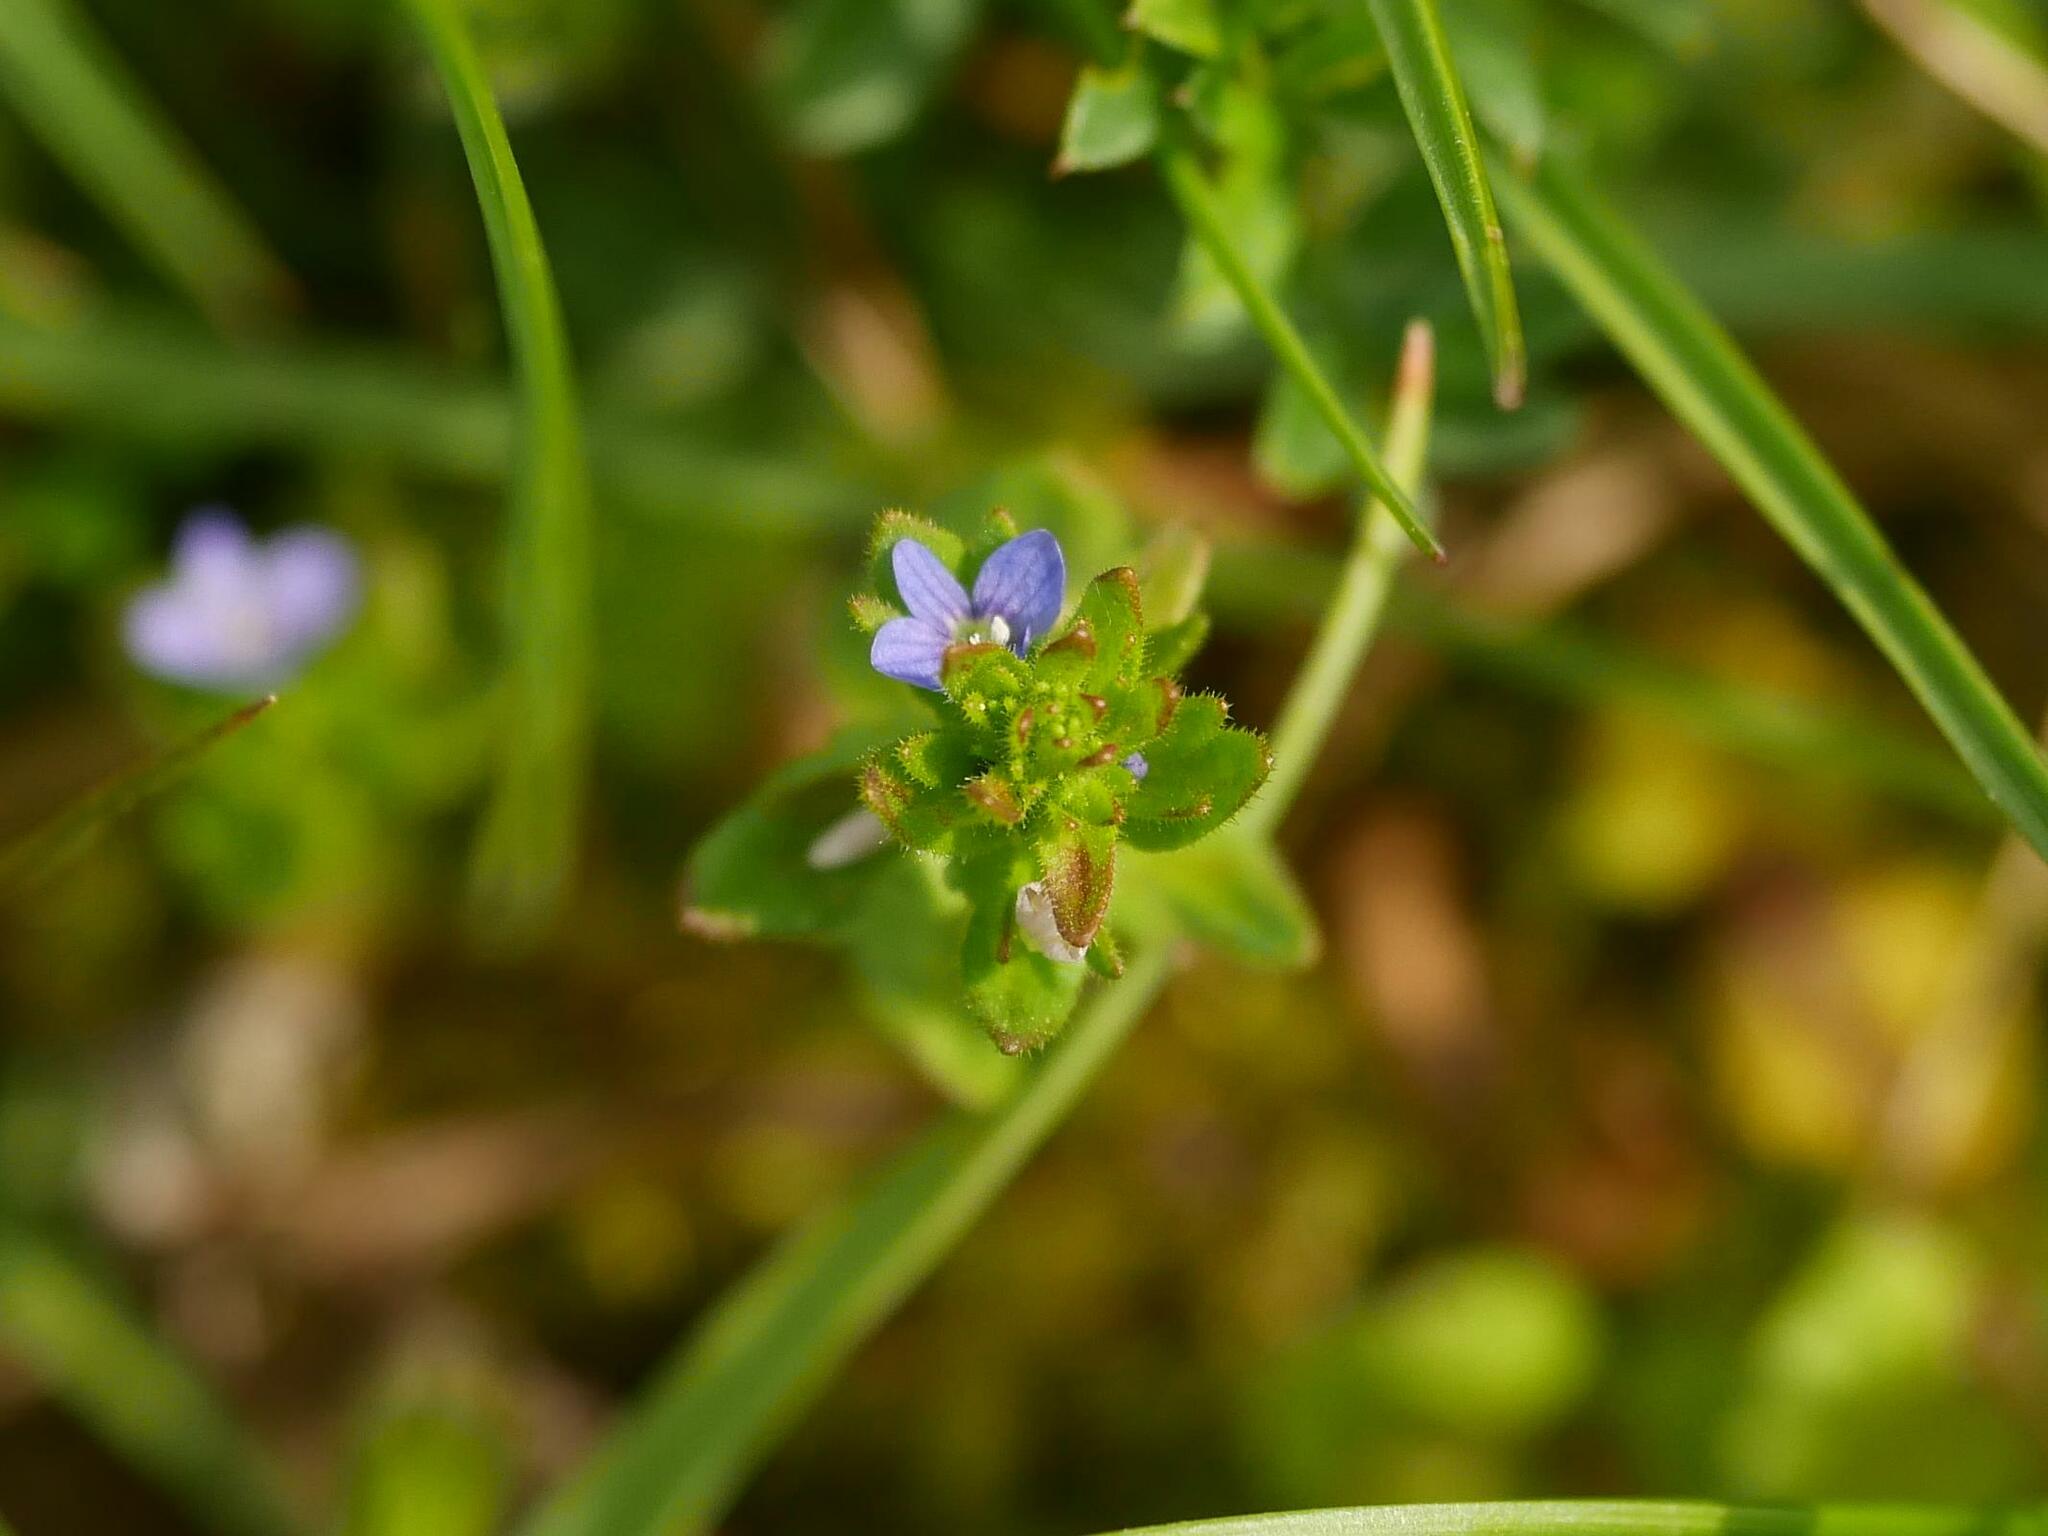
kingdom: Plantae
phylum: Tracheophyta
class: Magnoliopsida
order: Lamiales
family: Plantaginaceae
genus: Veronica
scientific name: Veronica arvensis
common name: Corn speedwell
